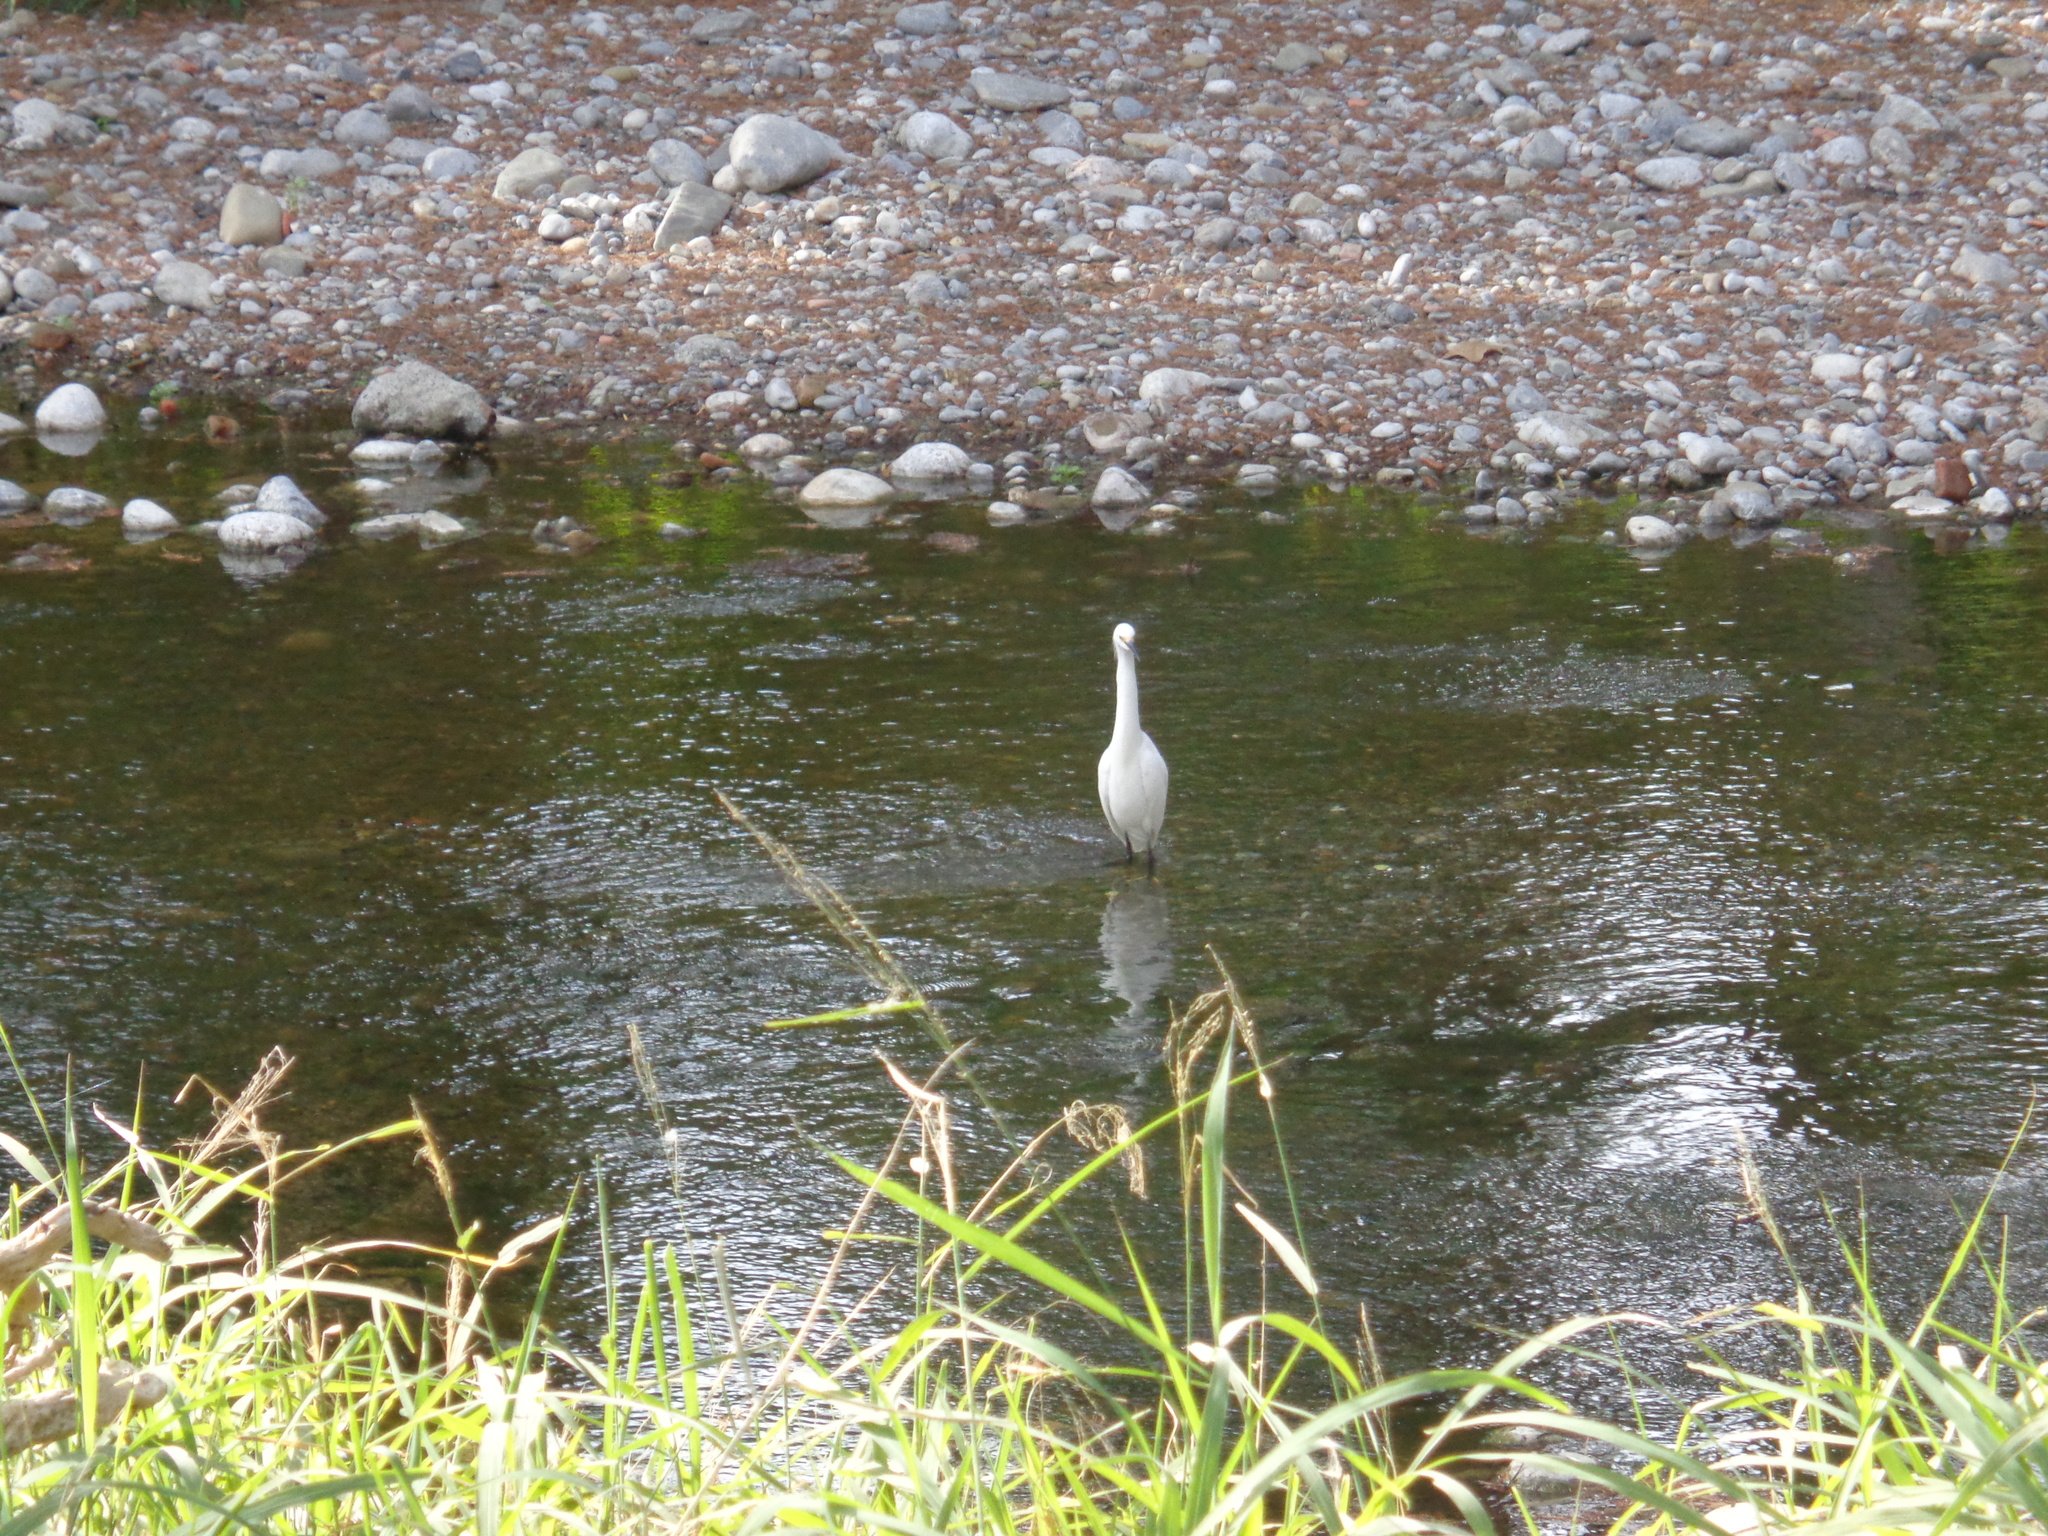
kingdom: Animalia
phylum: Chordata
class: Aves
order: Pelecaniformes
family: Ardeidae
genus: Egretta
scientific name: Egretta thula
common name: Snowy egret
